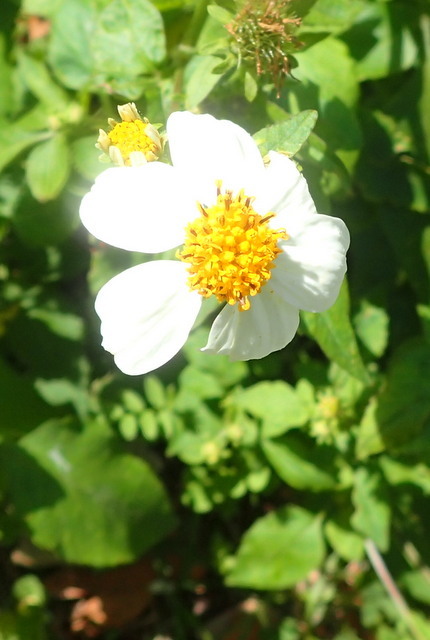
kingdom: Plantae
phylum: Tracheophyta
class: Magnoliopsida
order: Asterales
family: Asteraceae
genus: Bidens
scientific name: Bidens alba
